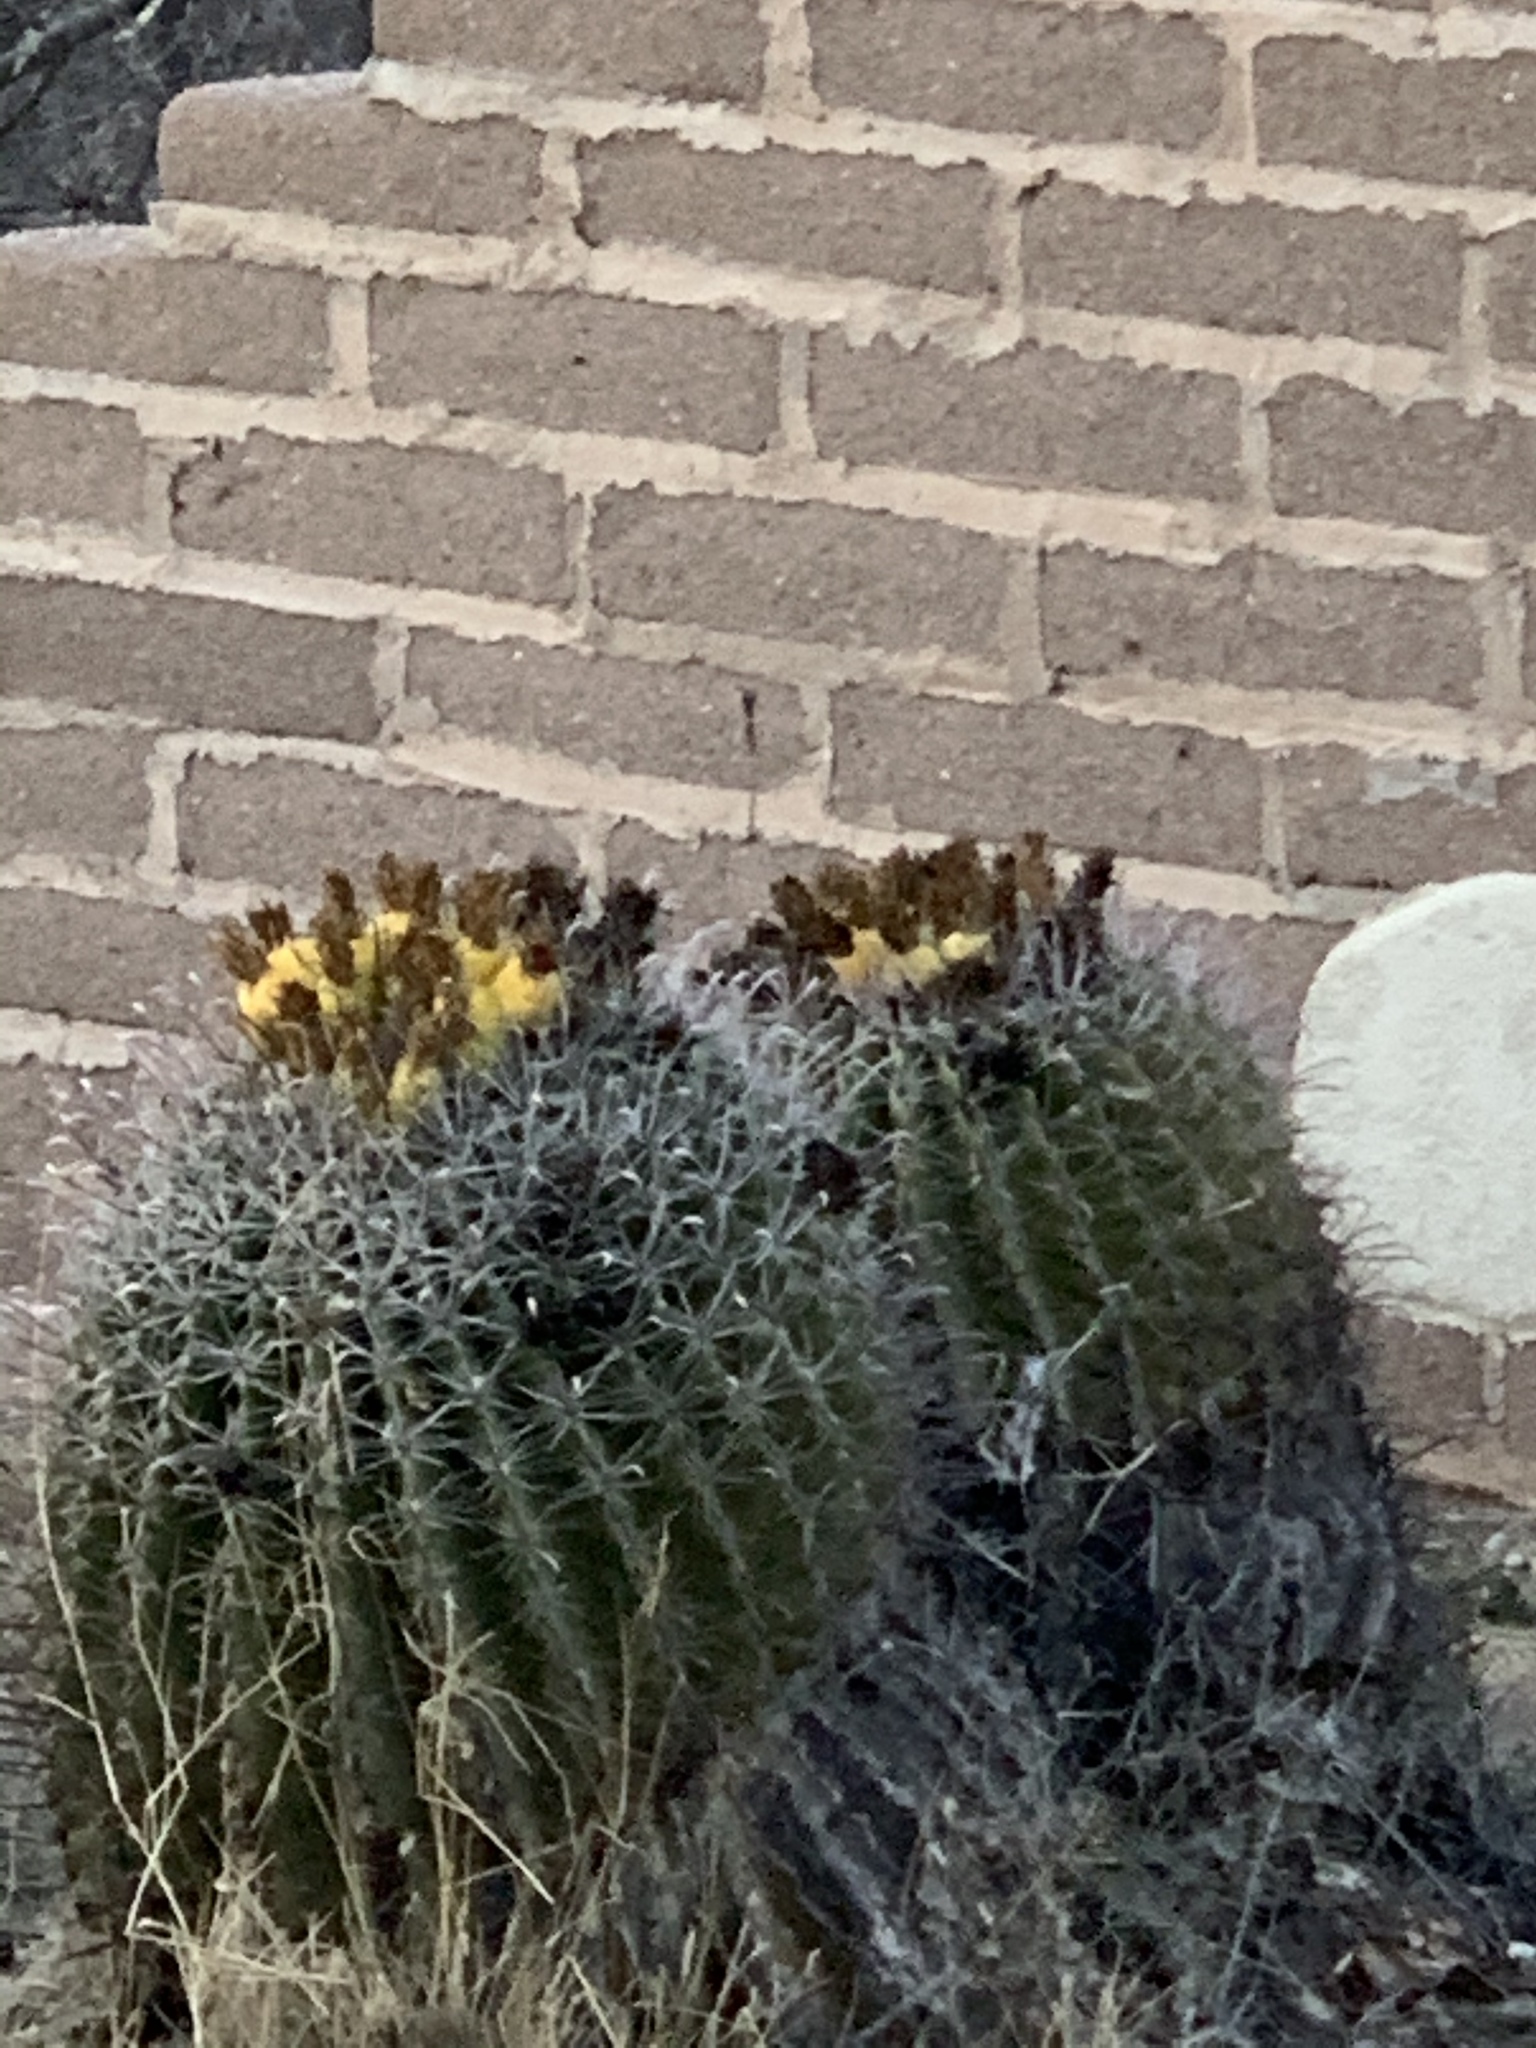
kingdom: Plantae
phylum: Tracheophyta
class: Magnoliopsida
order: Caryophyllales
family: Cactaceae
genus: Ferocactus
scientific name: Ferocactus wislizeni
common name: Candy barrel cactus
